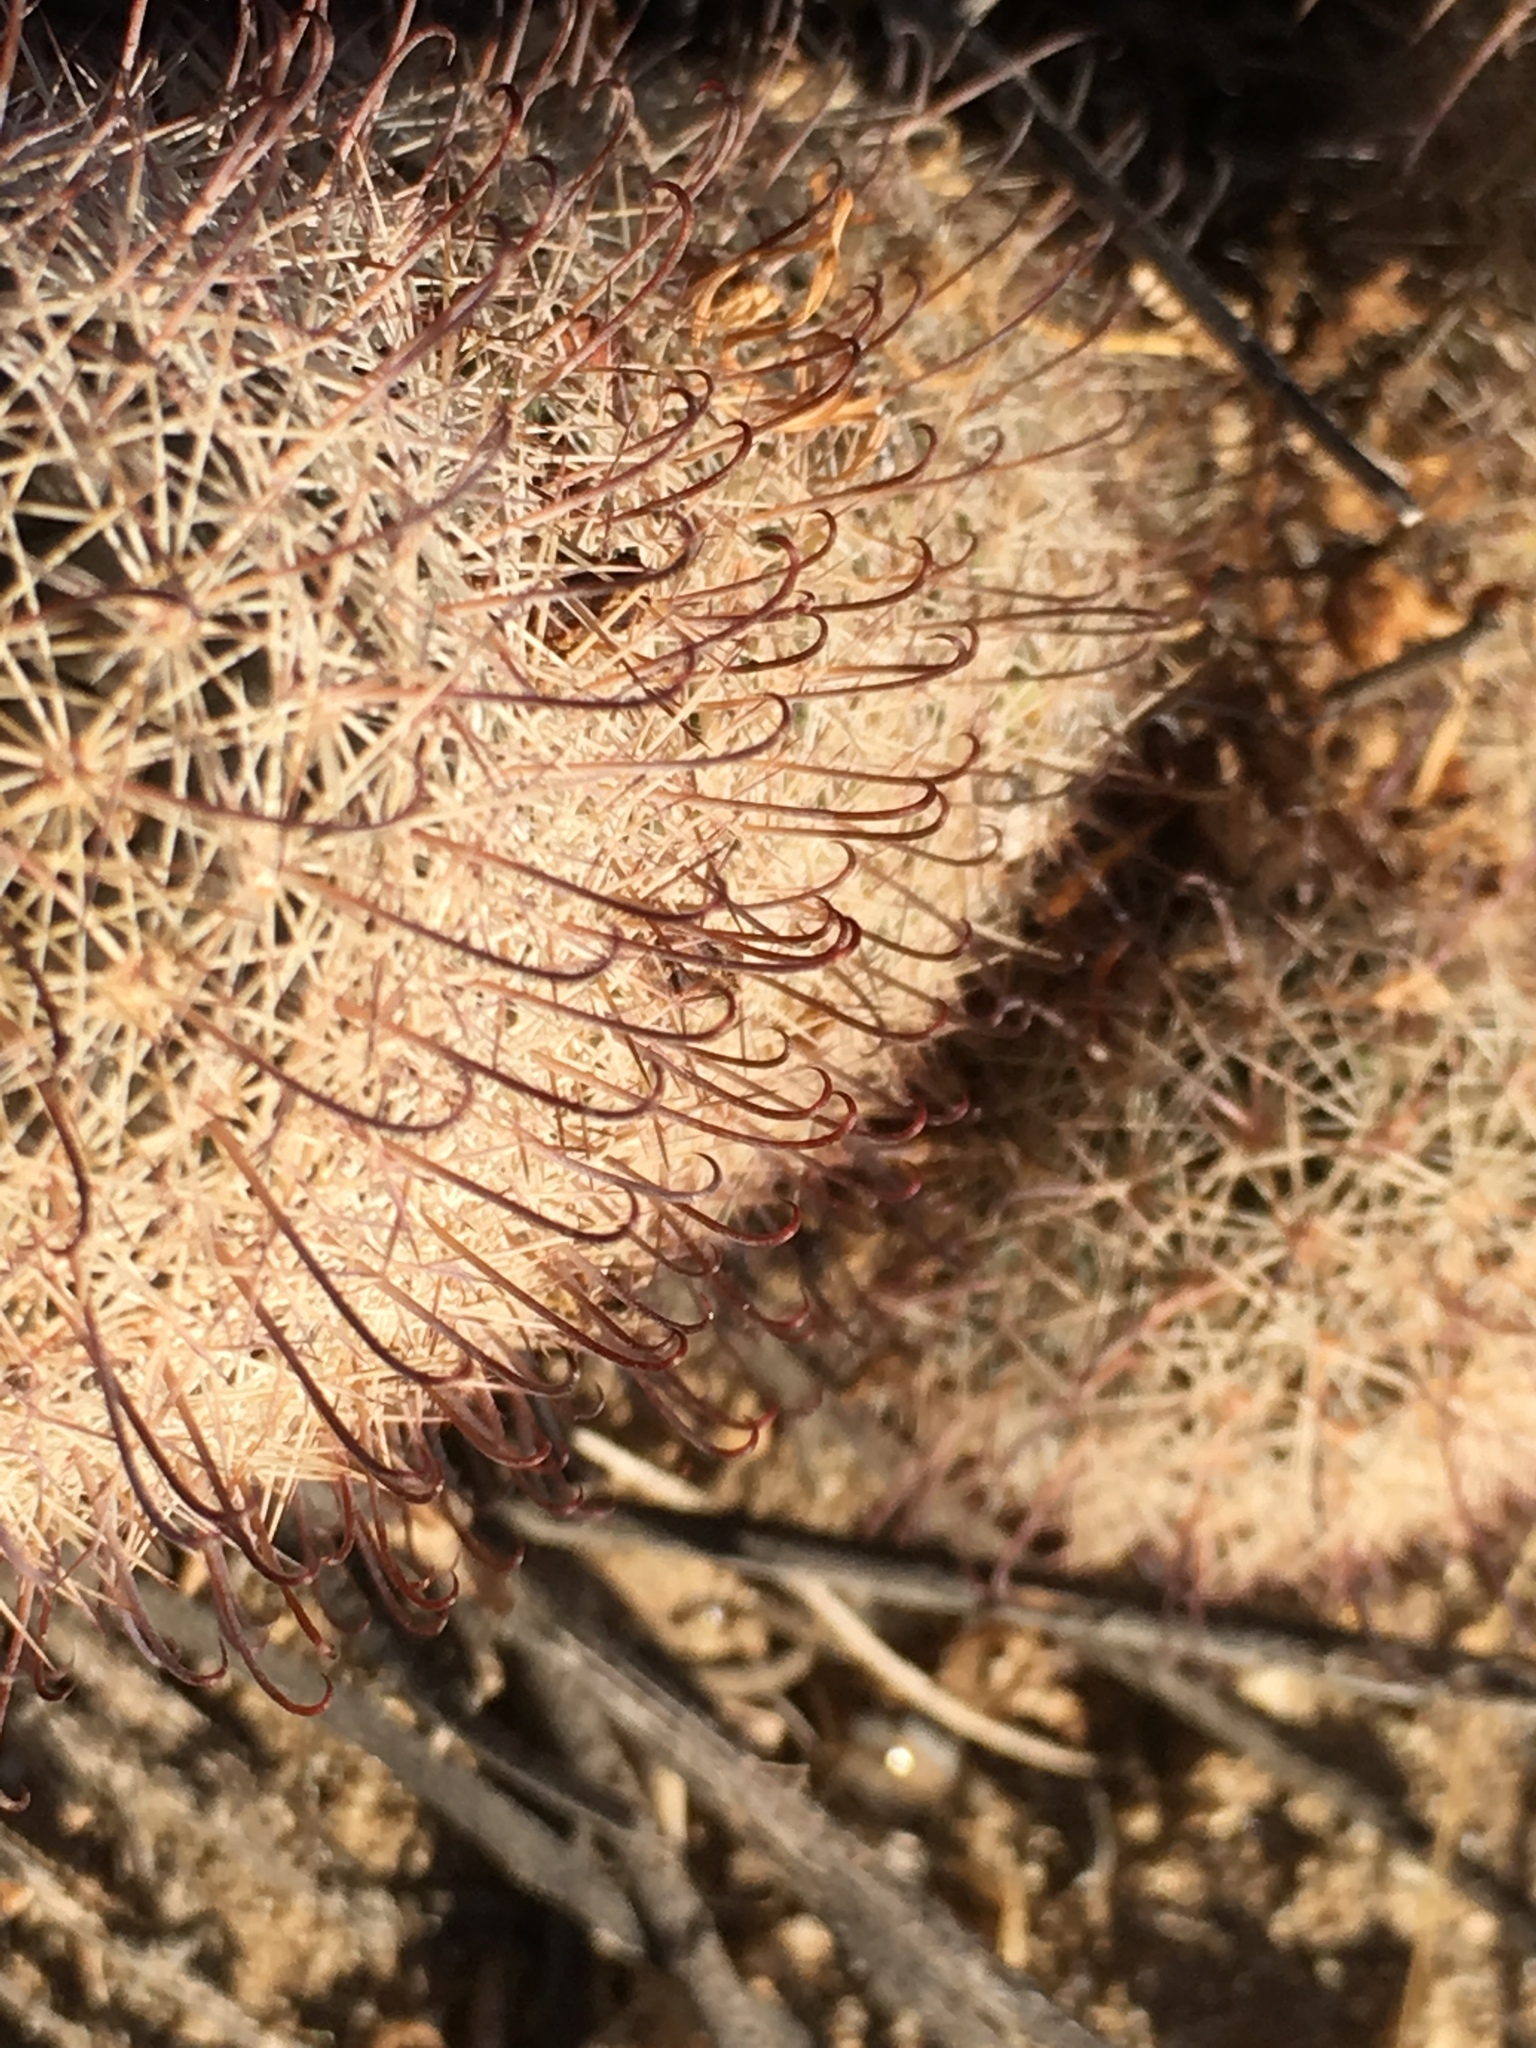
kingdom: Plantae
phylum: Tracheophyta
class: Magnoliopsida
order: Caryophyllales
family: Cactaceae
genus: Cochemiea
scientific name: Cochemiea dioica
